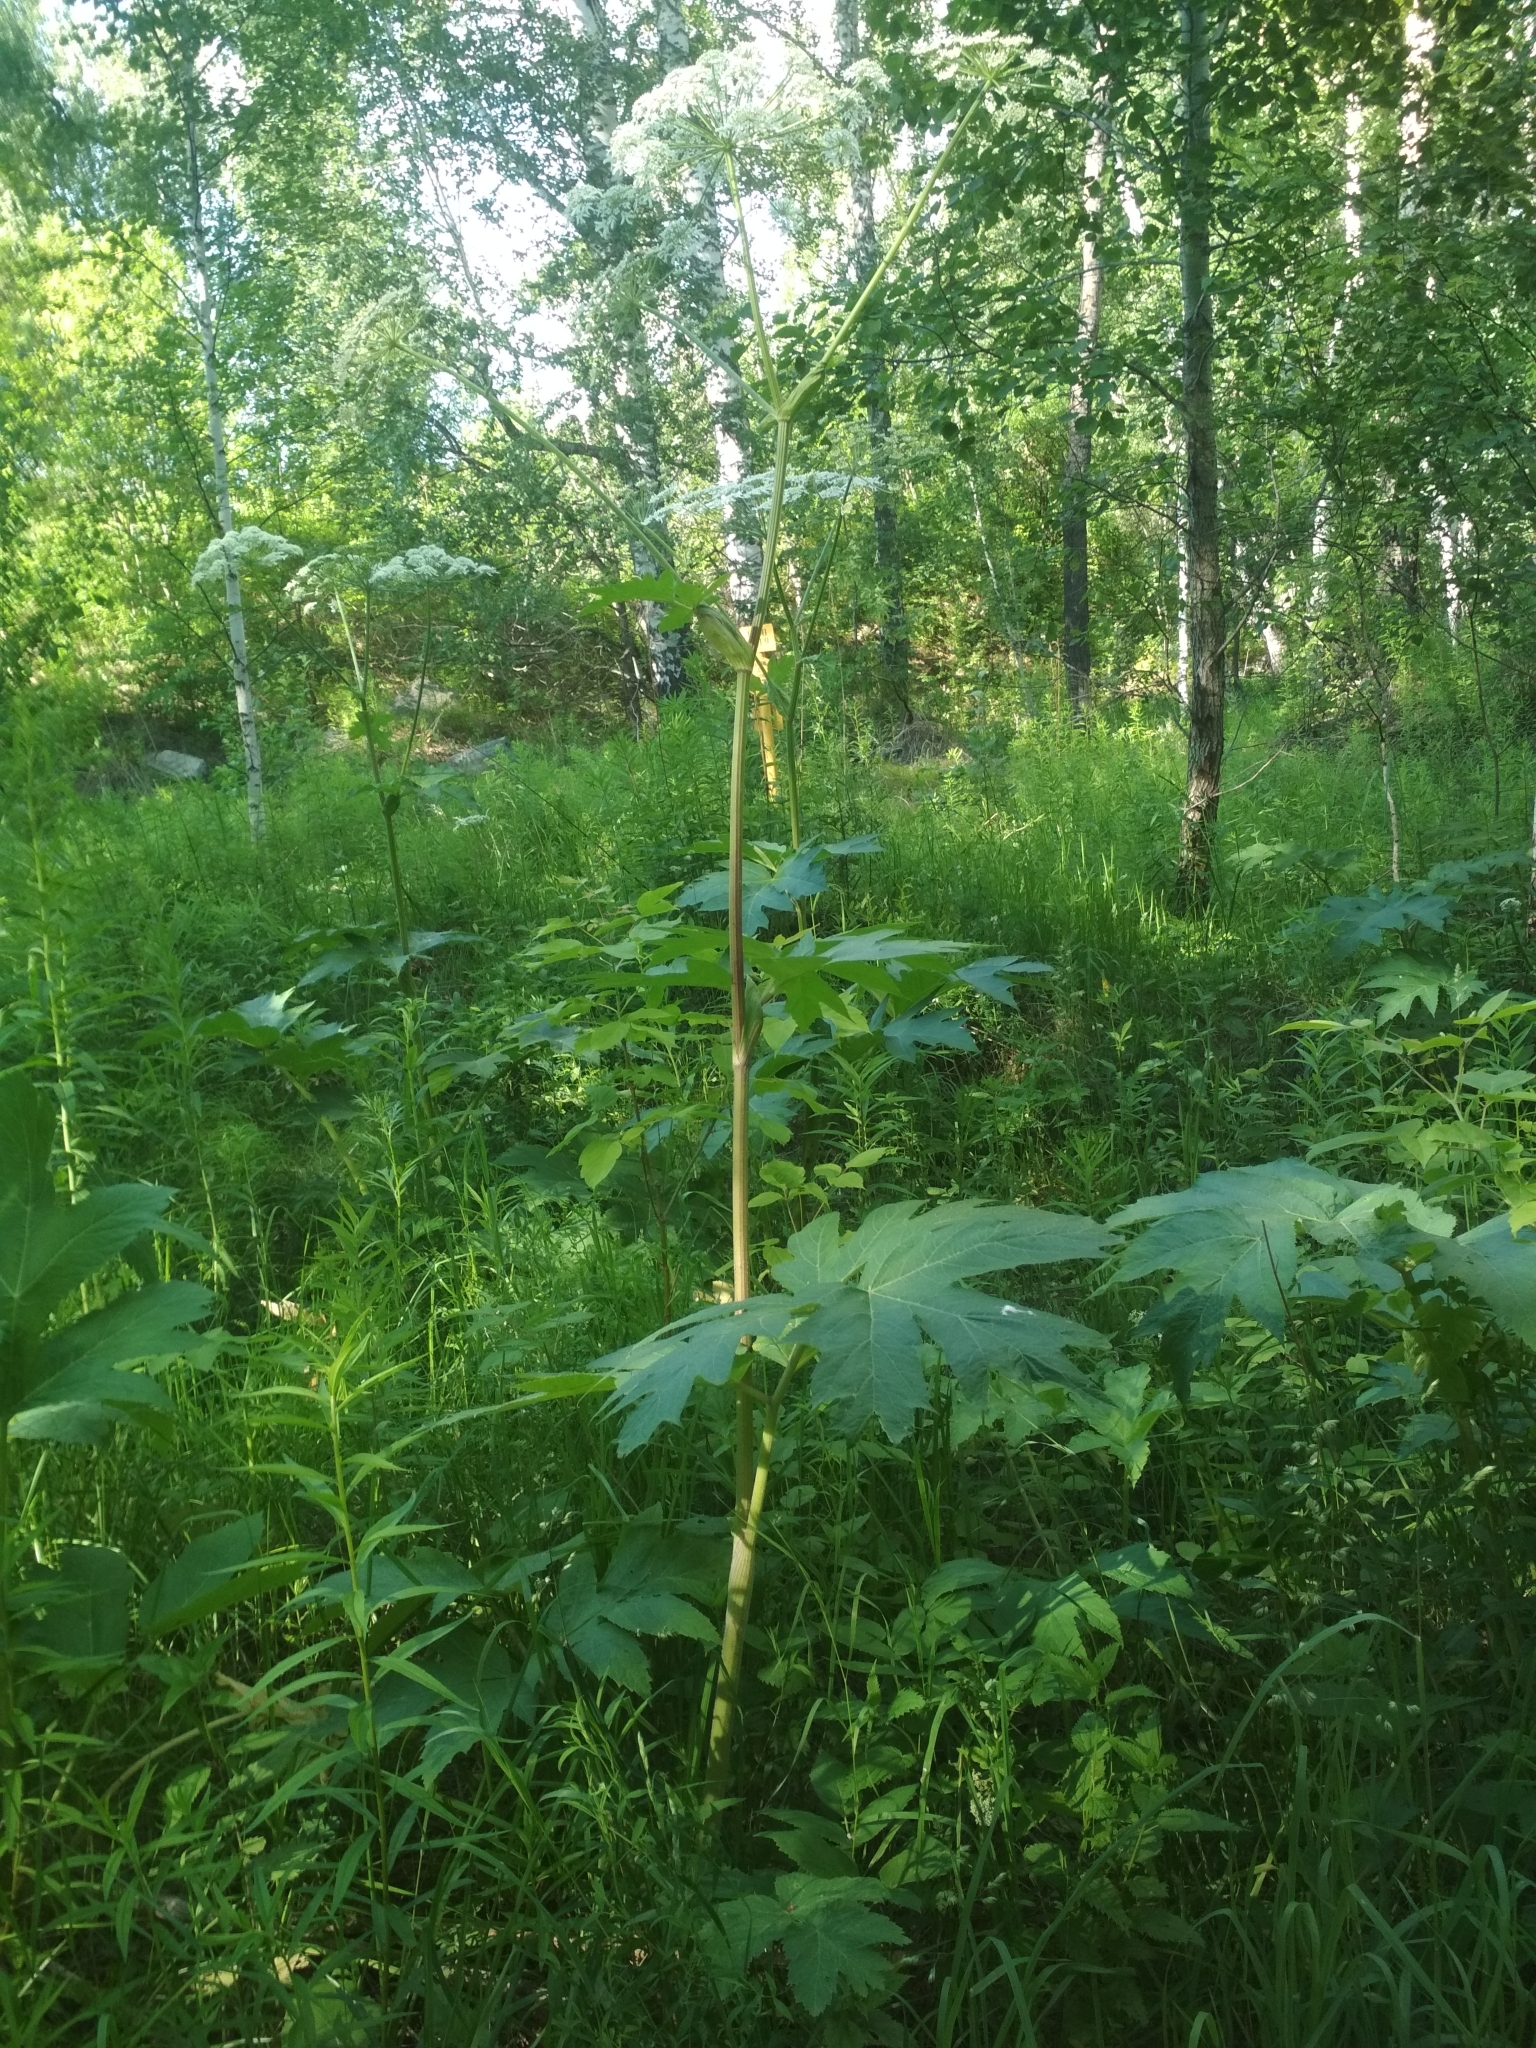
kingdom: Plantae
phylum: Tracheophyta
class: Magnoliopsida
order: Apiales
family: Apiaceae
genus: Heracleum
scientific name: Heracleum dissectum
